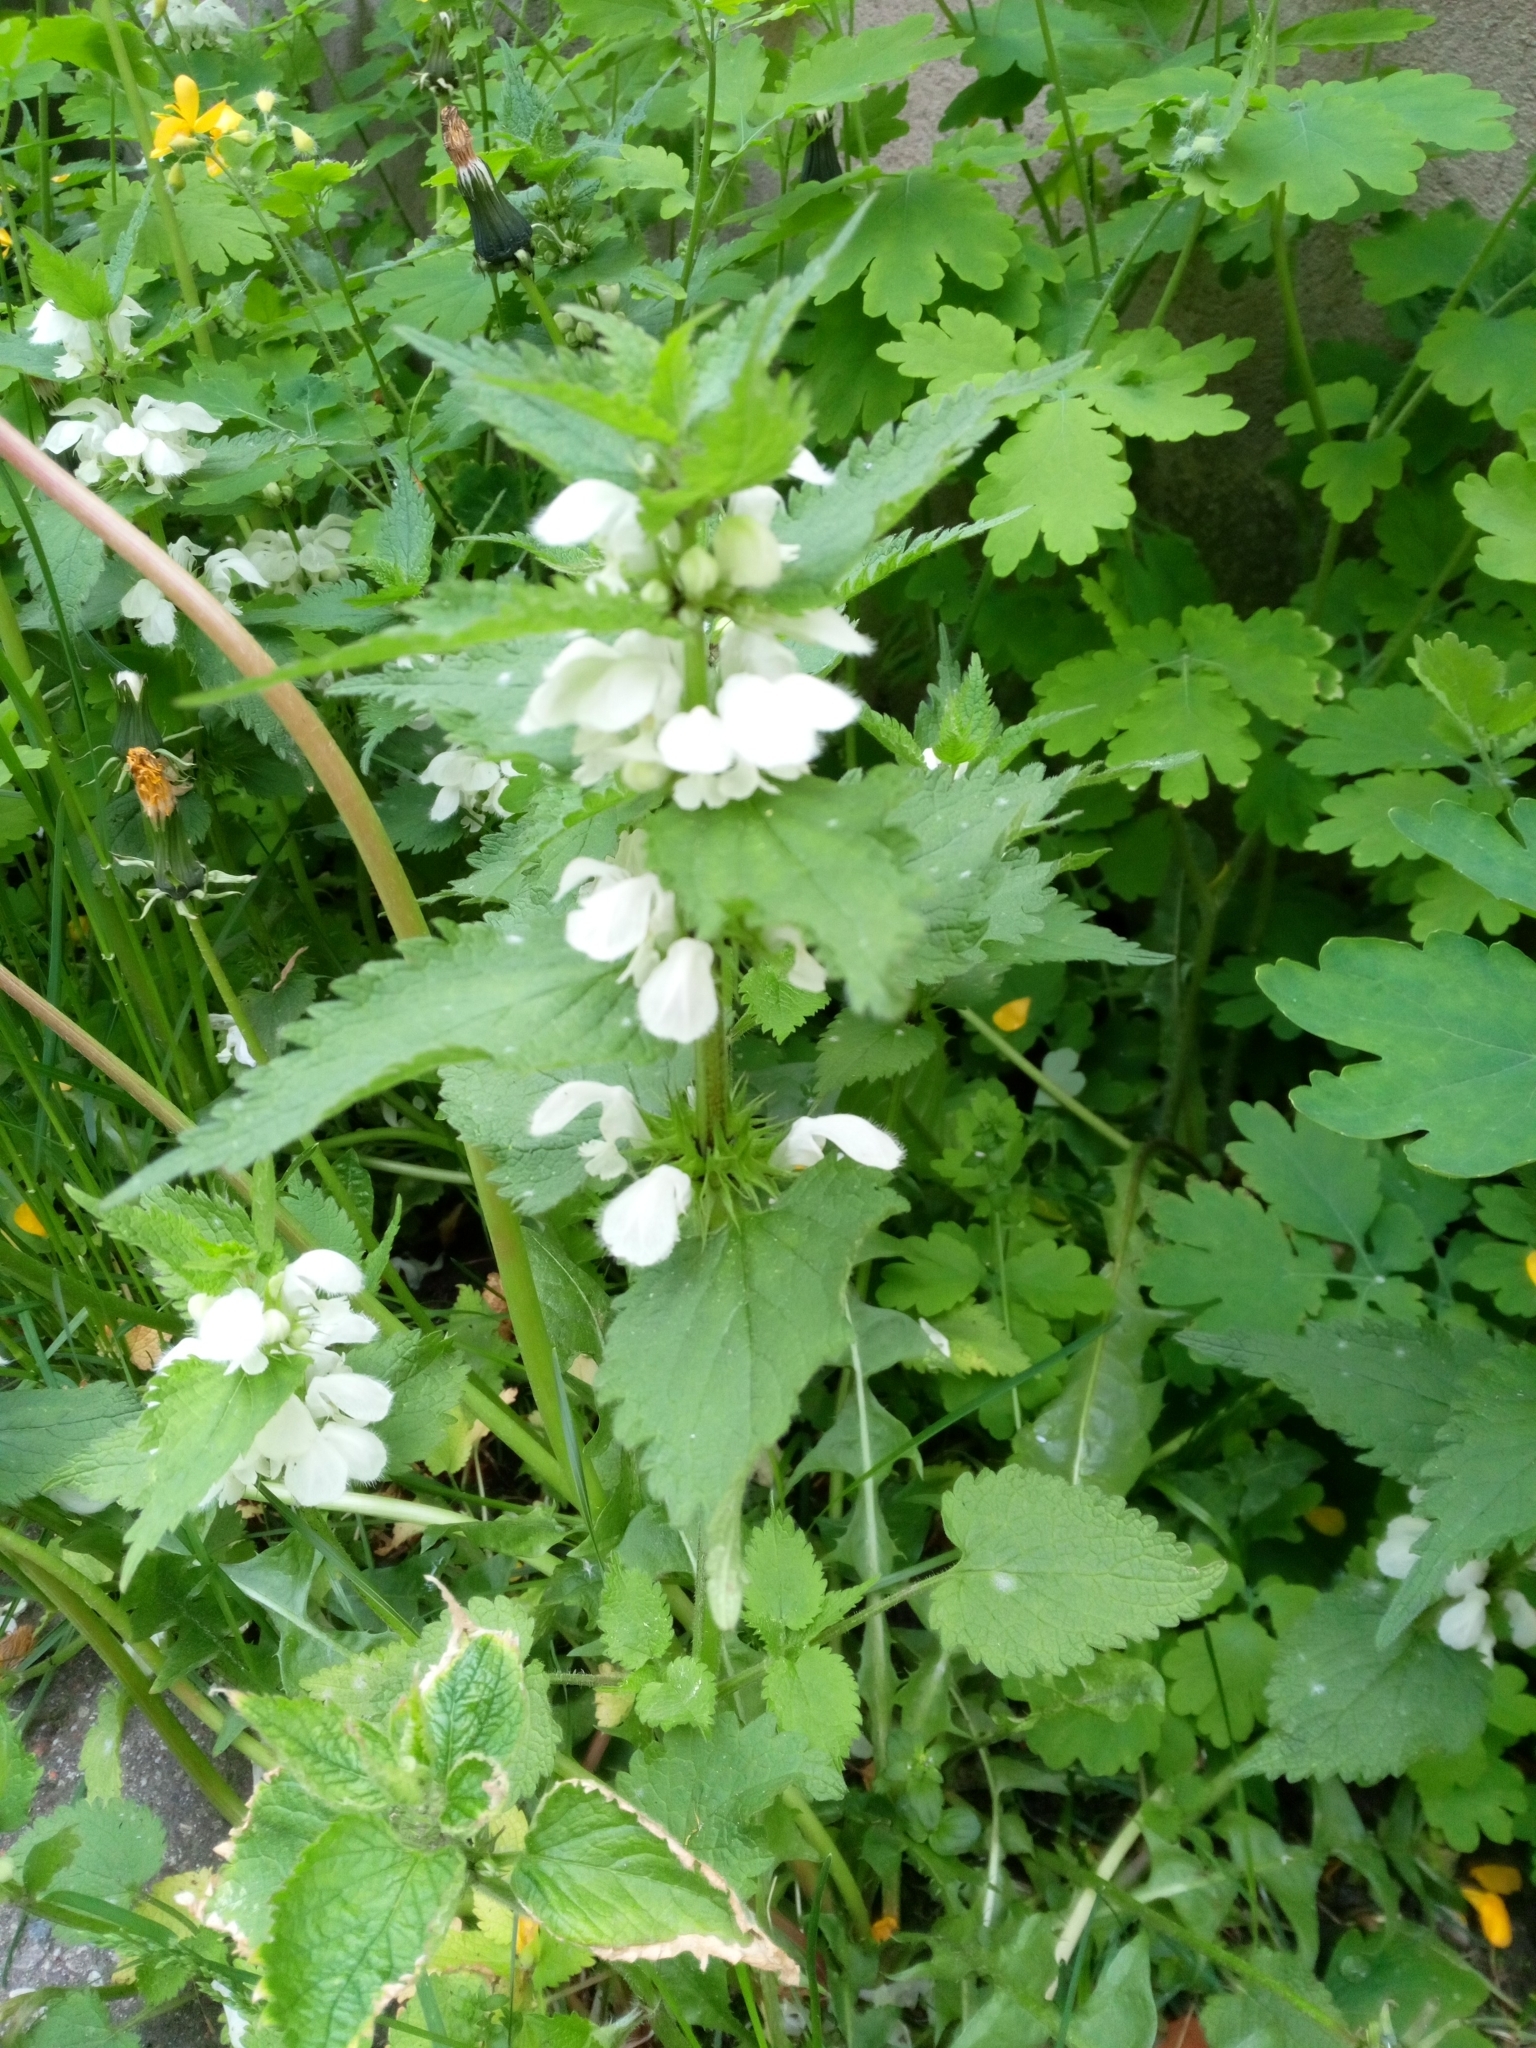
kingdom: Plantae
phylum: Tracheophyta
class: Magnoliopsida
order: Lamiales
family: Lamiaceae
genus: Lamium
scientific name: Lamium album
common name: White dead-nettle
